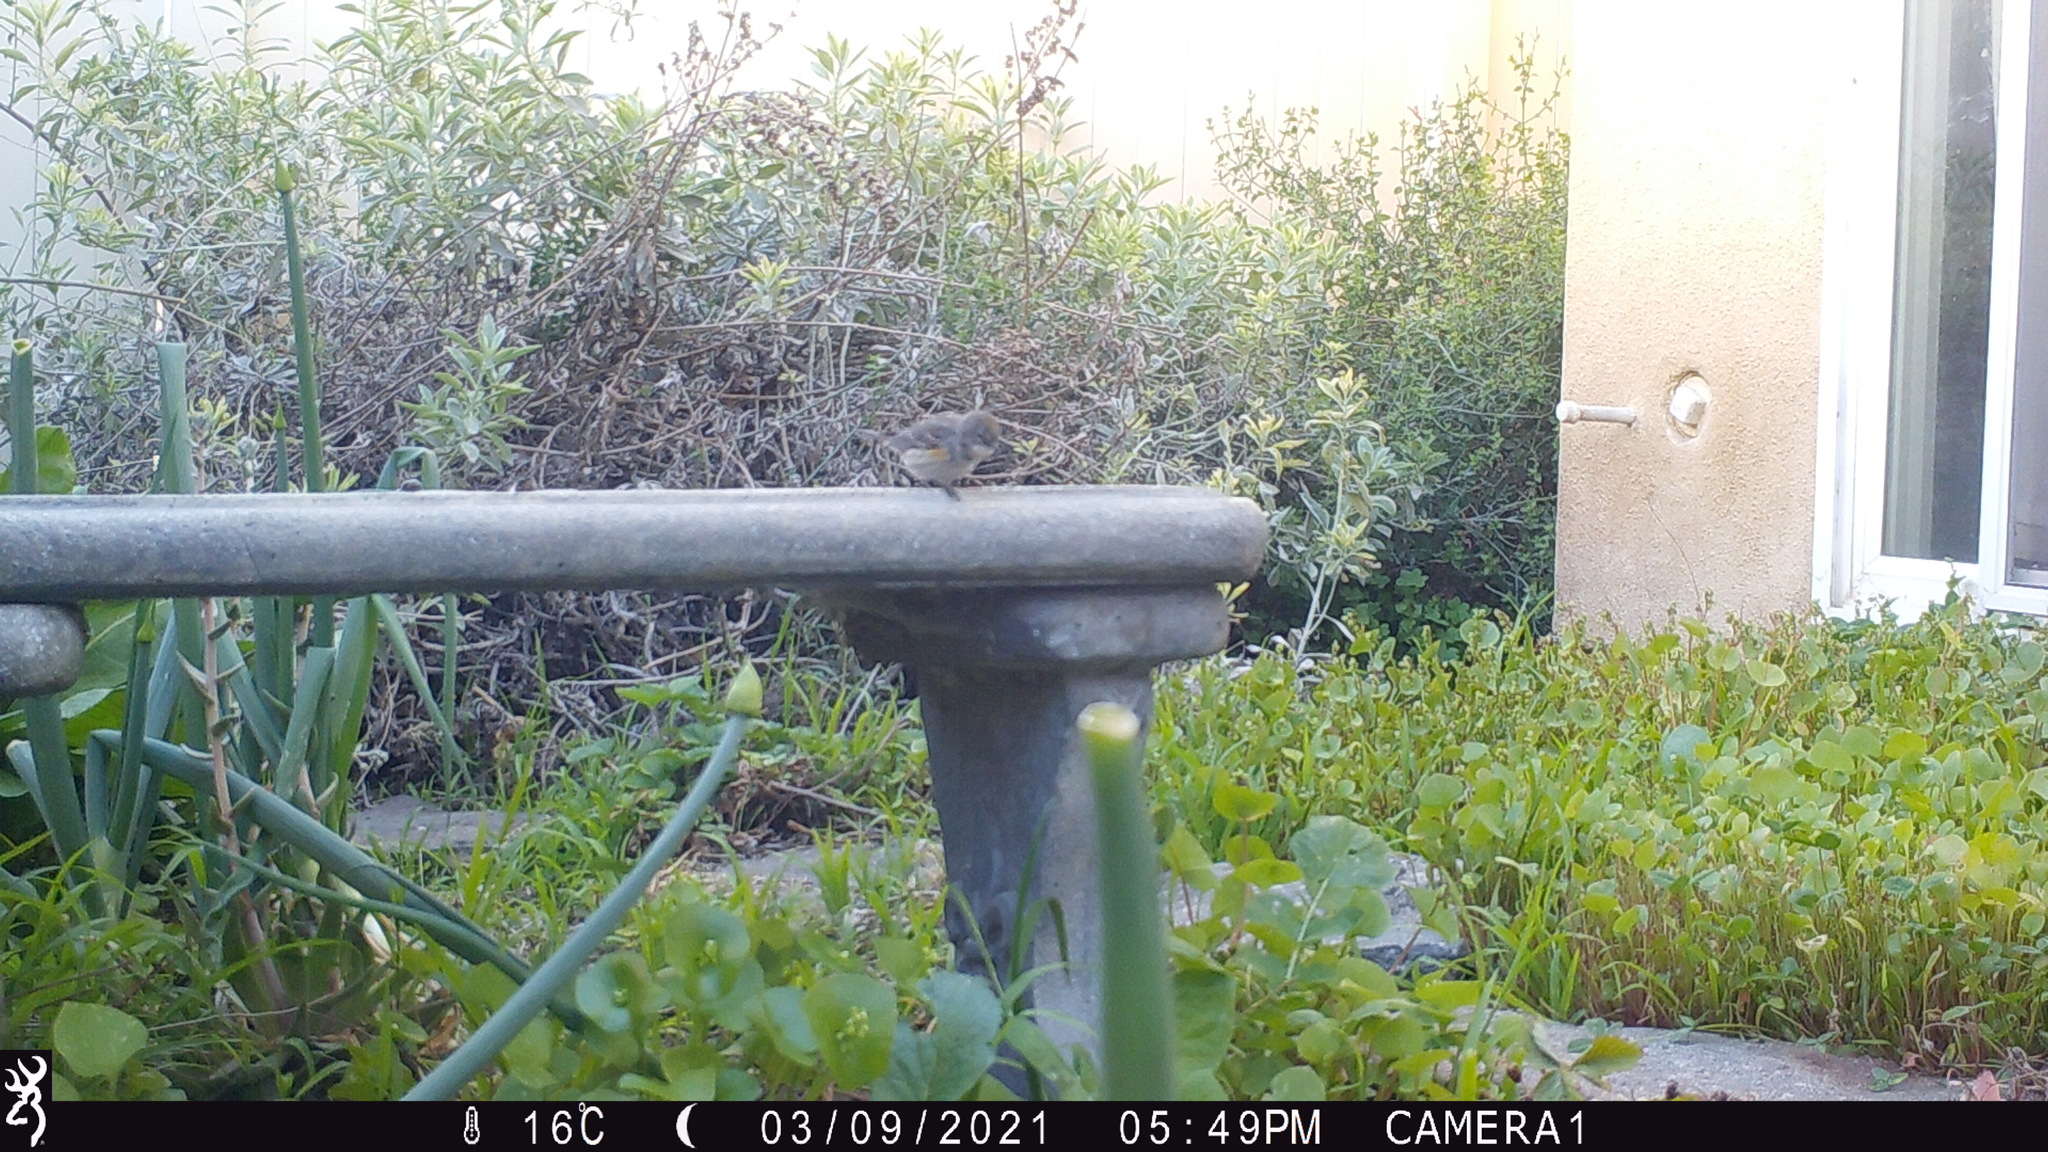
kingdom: Animalia
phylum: Chordata
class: Aves
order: Passeriformes
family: Parulidae
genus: Setophaga
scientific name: Setophaga coronata
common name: Myrtle warbler
